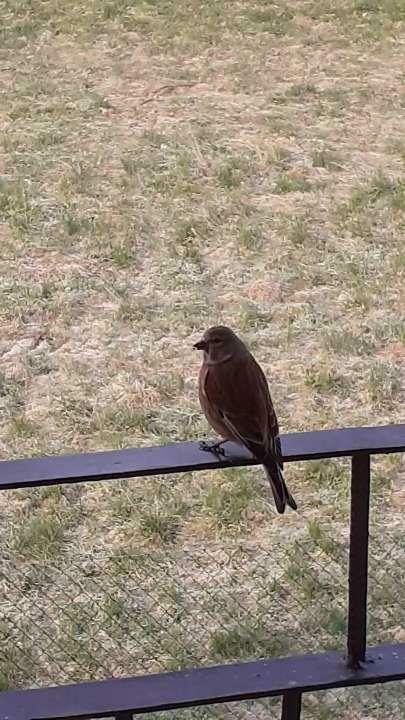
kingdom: Animalia
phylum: Chordata
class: Aves
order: Passeriformes
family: Fringillidae
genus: Linaria
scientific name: Linaria cannabina
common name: Common linnet
